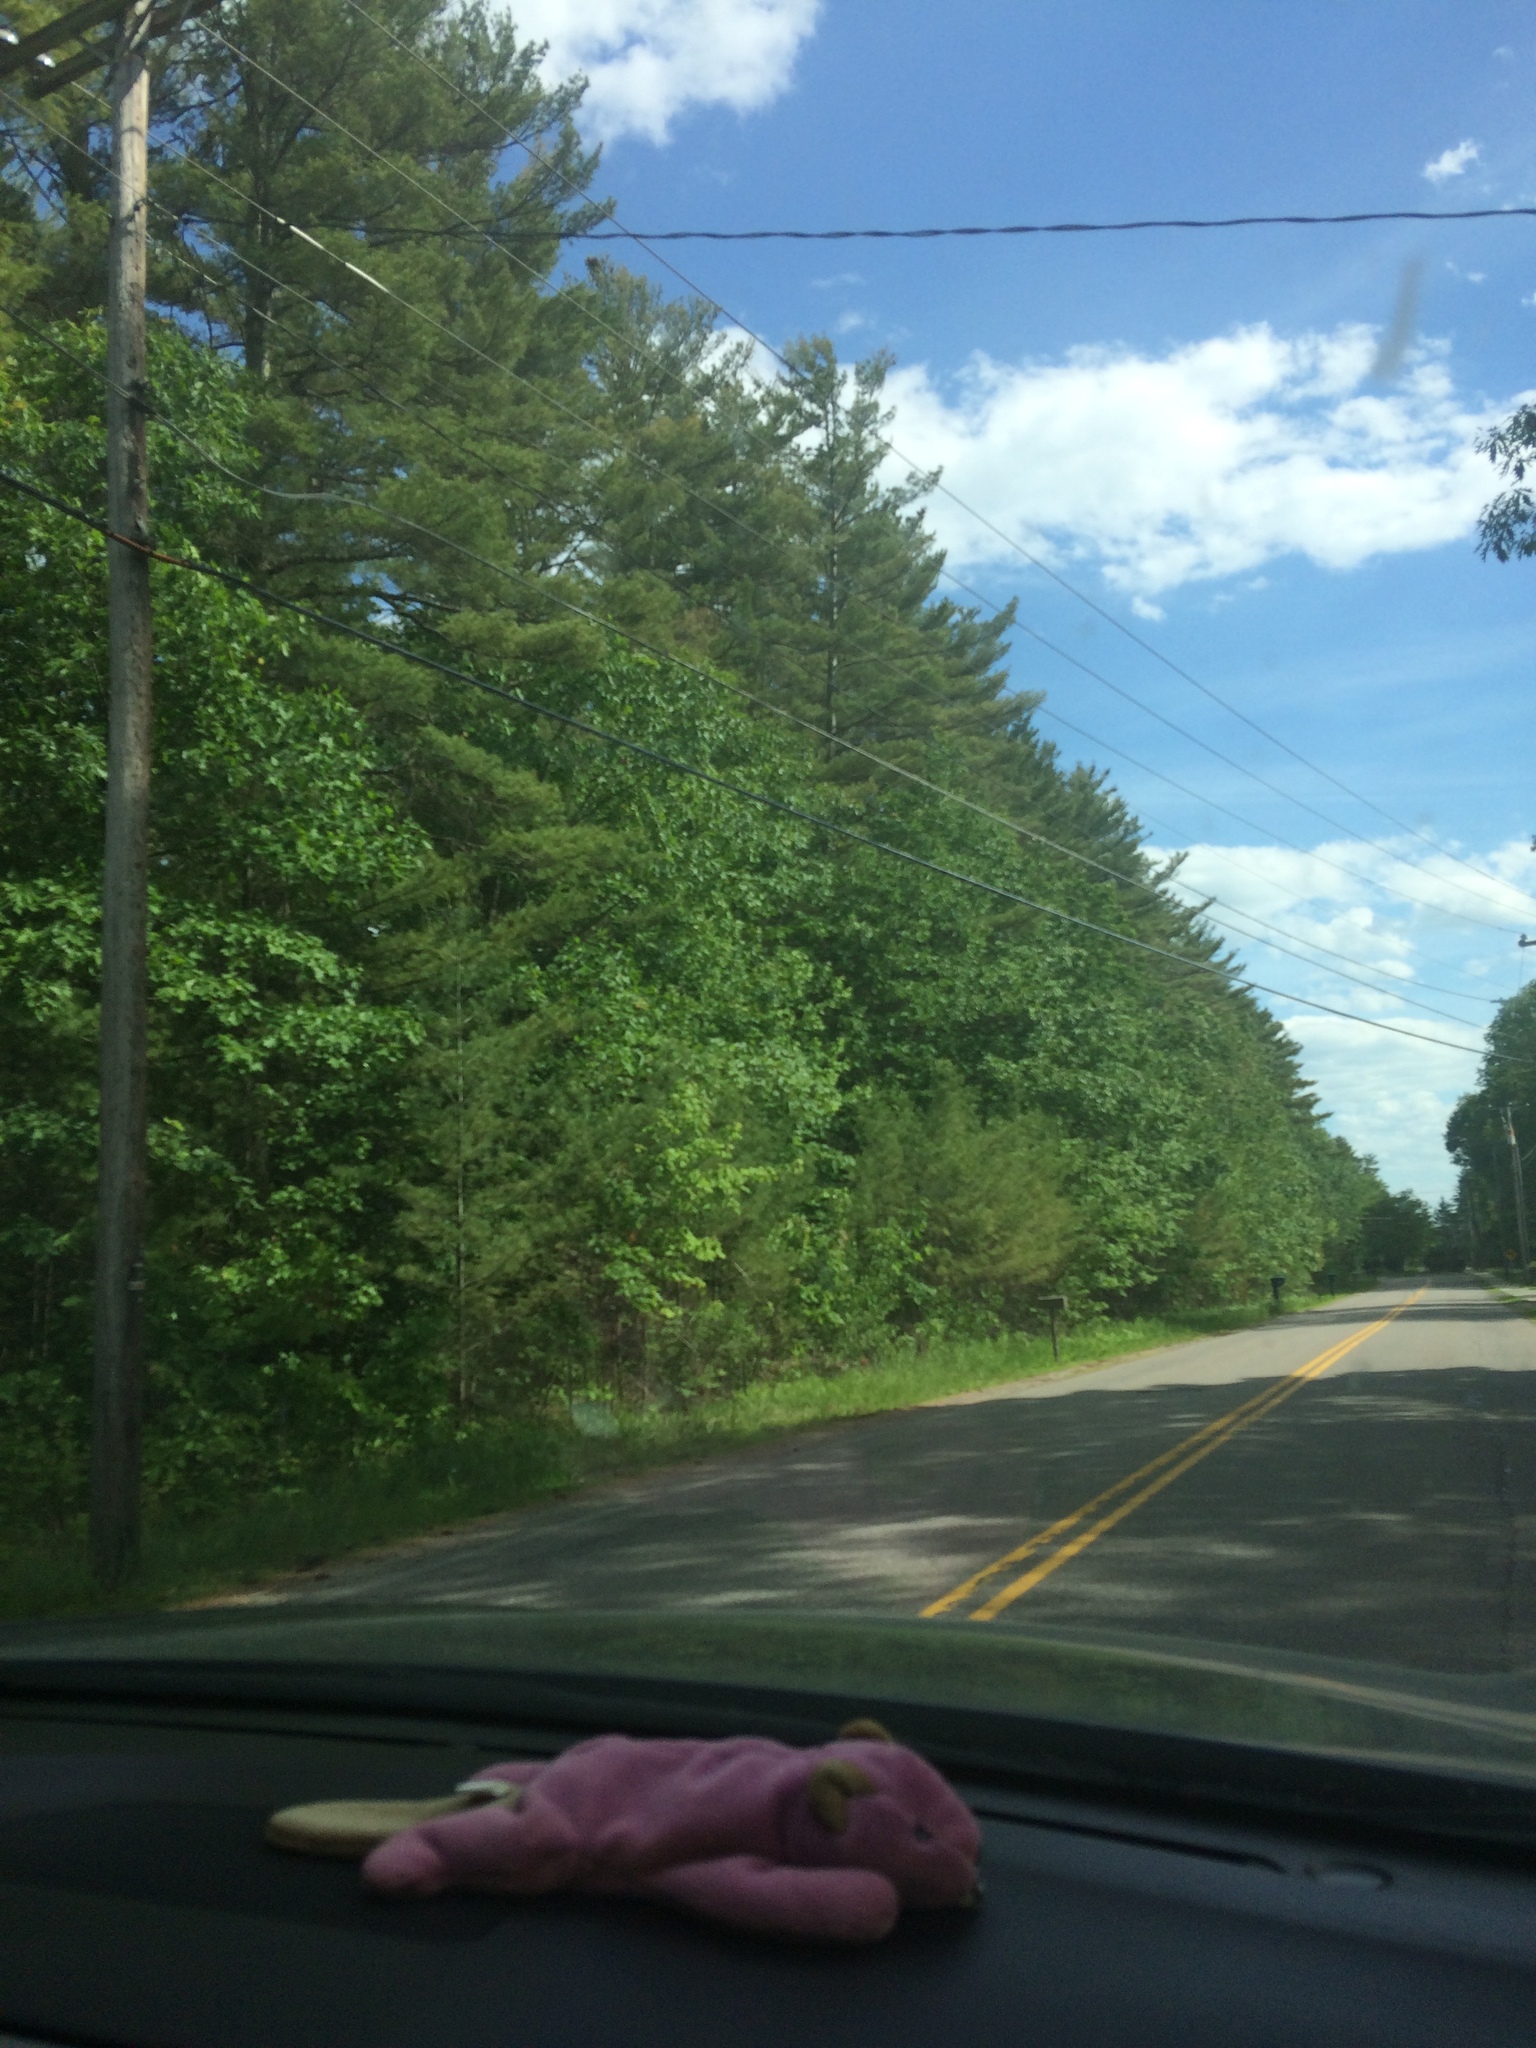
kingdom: Plantae
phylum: Tracheophyta
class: Pinopsida
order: Pinales
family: Pinaceae
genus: Pinus
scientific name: Pinus strobus
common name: Weymouth pine
